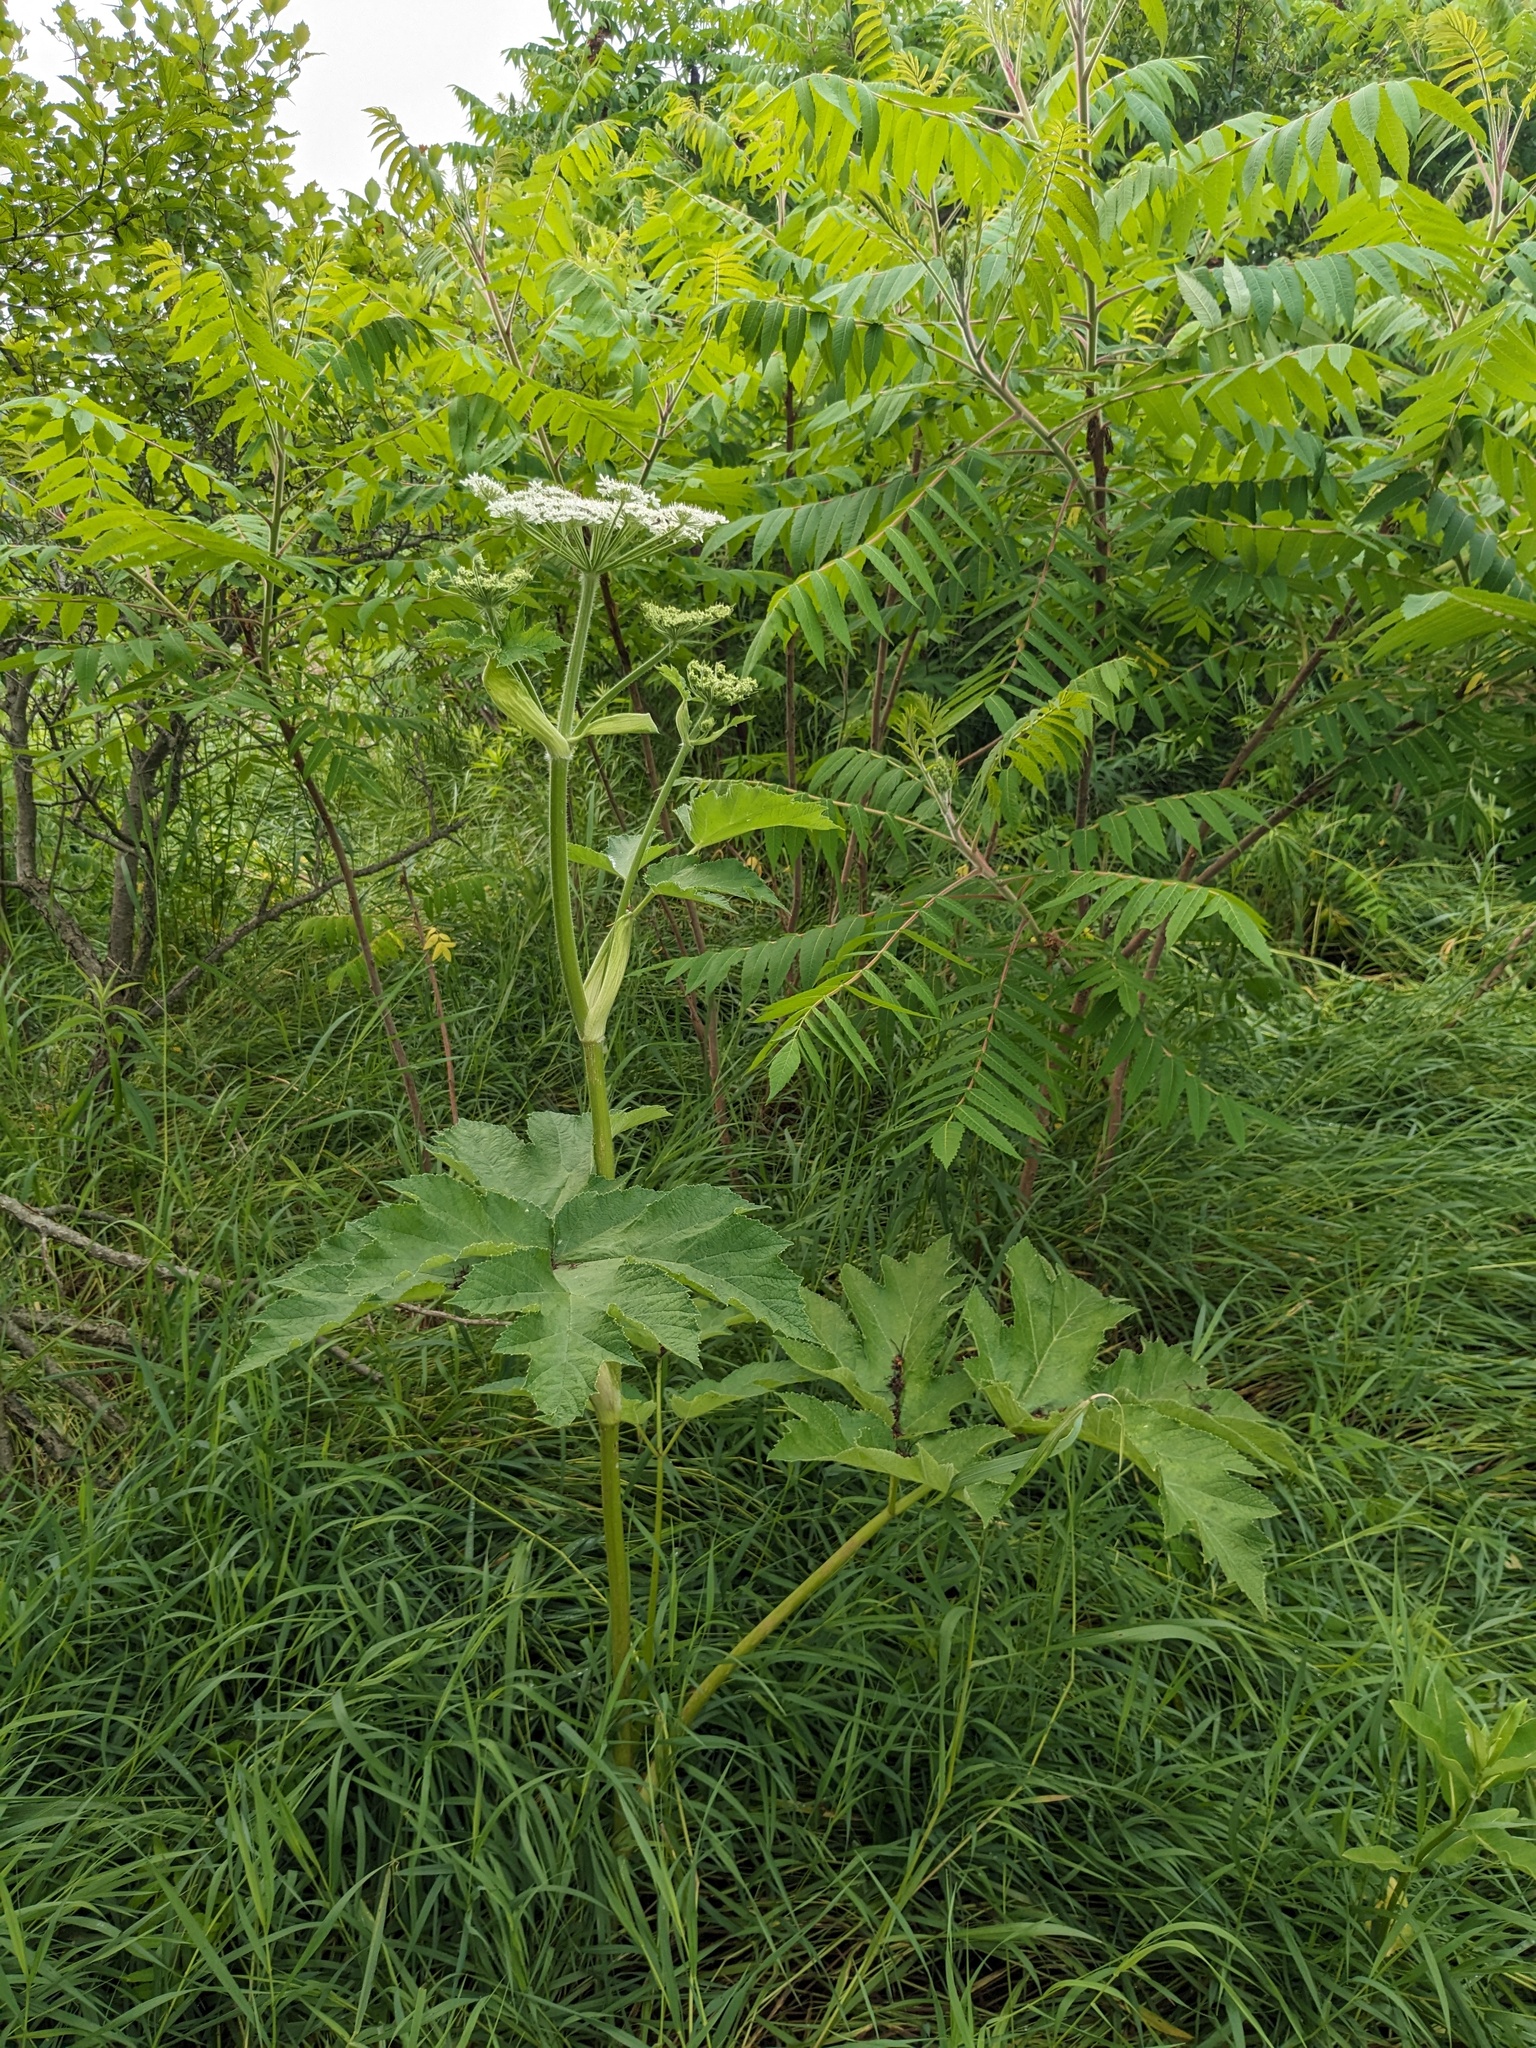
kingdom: Plantae
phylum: Tracheophyta
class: Magnoliopsida
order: Apiales
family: Apiaceae
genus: Heracleum
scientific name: Heracleum maximum
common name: American cow parsnip
